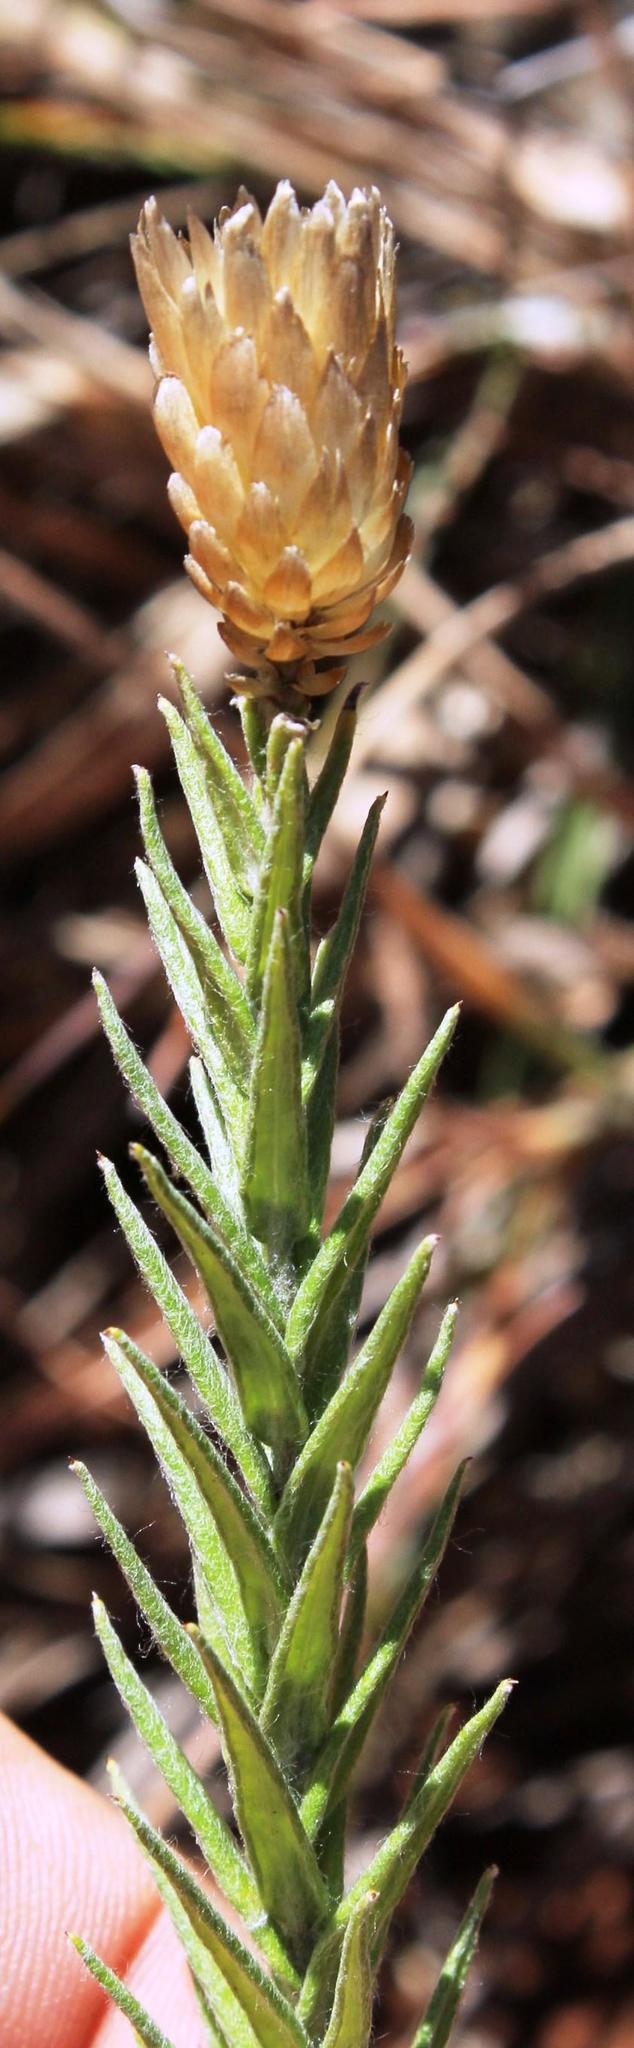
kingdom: Plantae
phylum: Tracheophyta
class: Magnoliopsida
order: Asterales
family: Asteraceae
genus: Helichrysum
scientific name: Helichrysum herbaceum
